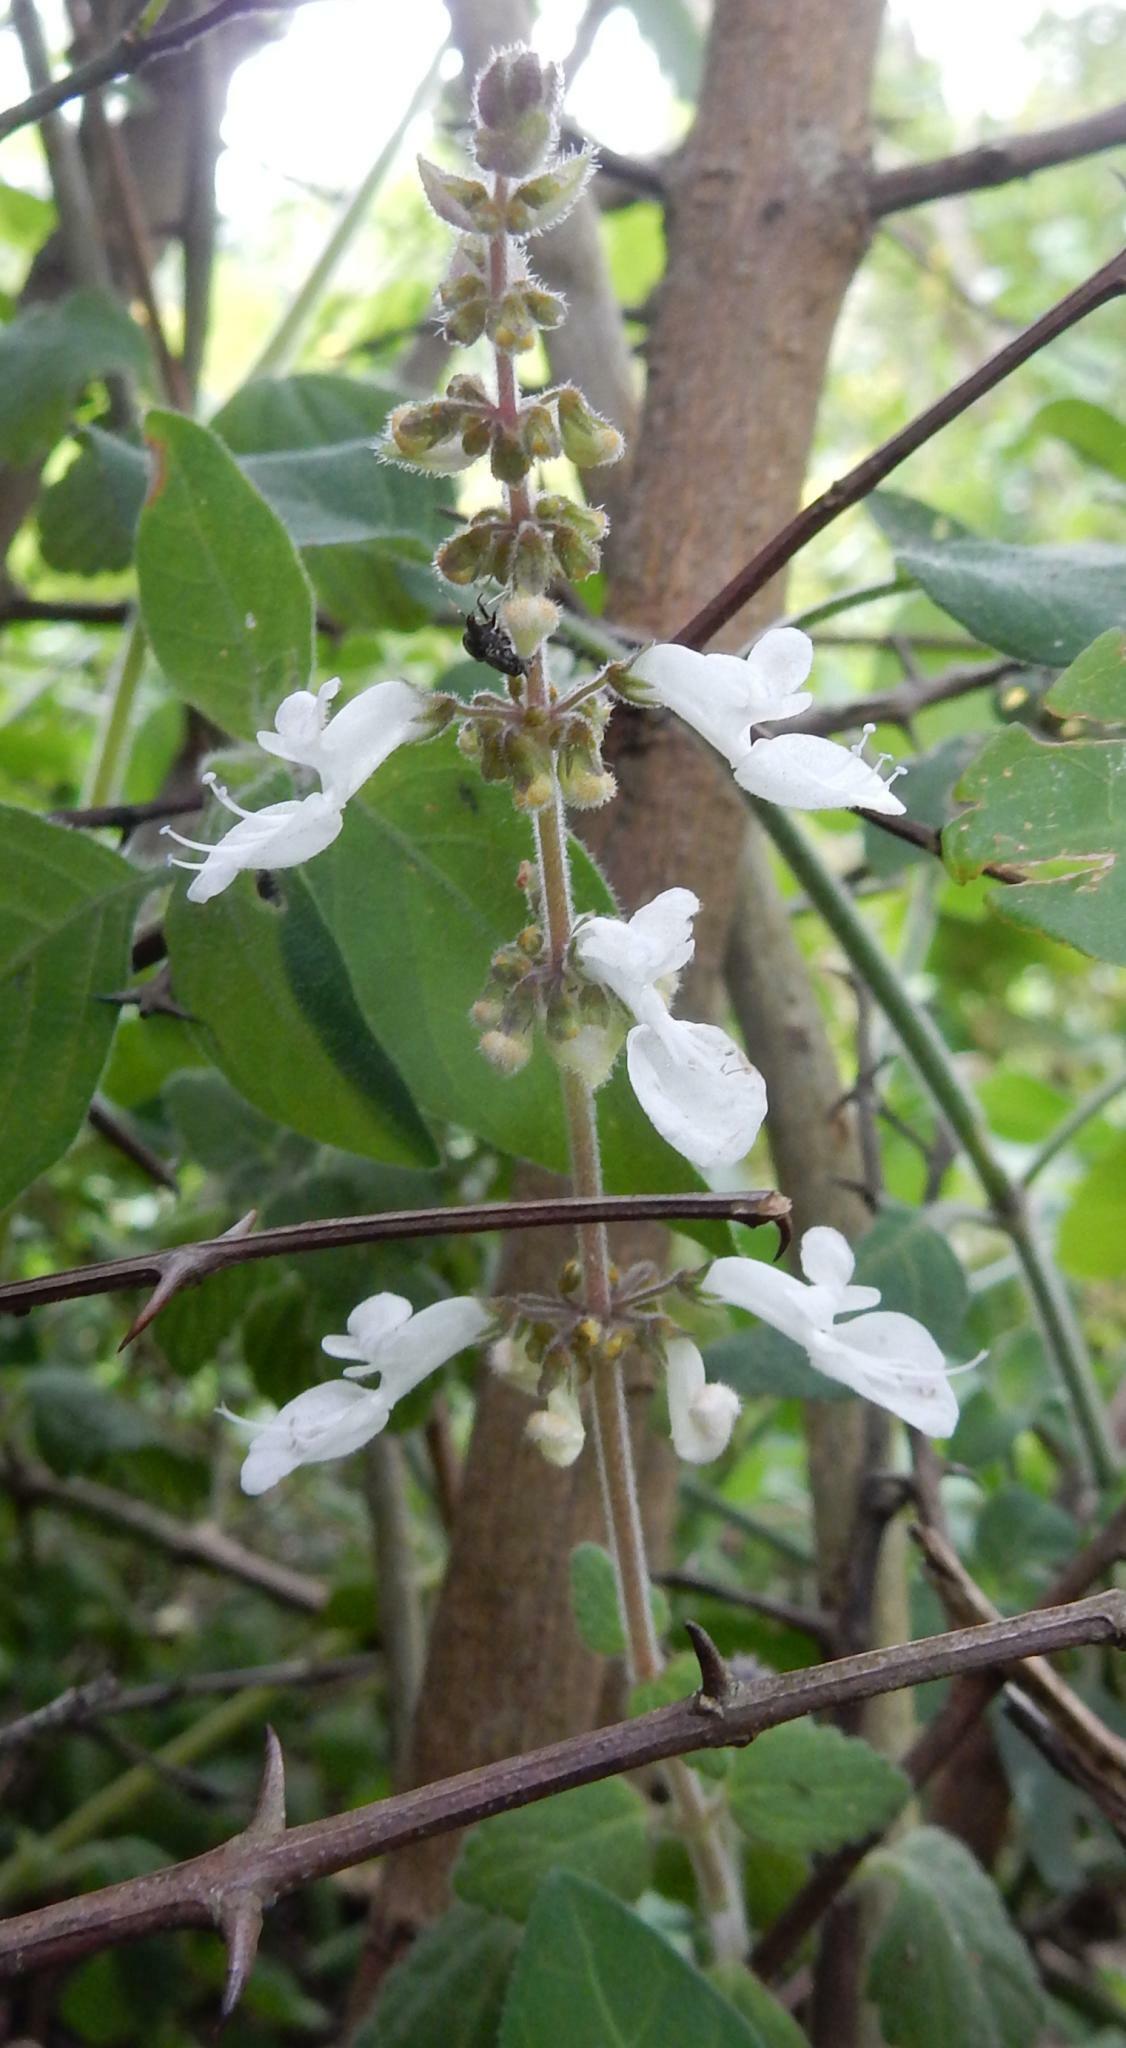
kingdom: Plantae
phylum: Tracheophyta
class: Magnoliopsida
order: Lamiales
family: Lamiaceae
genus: Coleus
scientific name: Coleus madagascariensis
